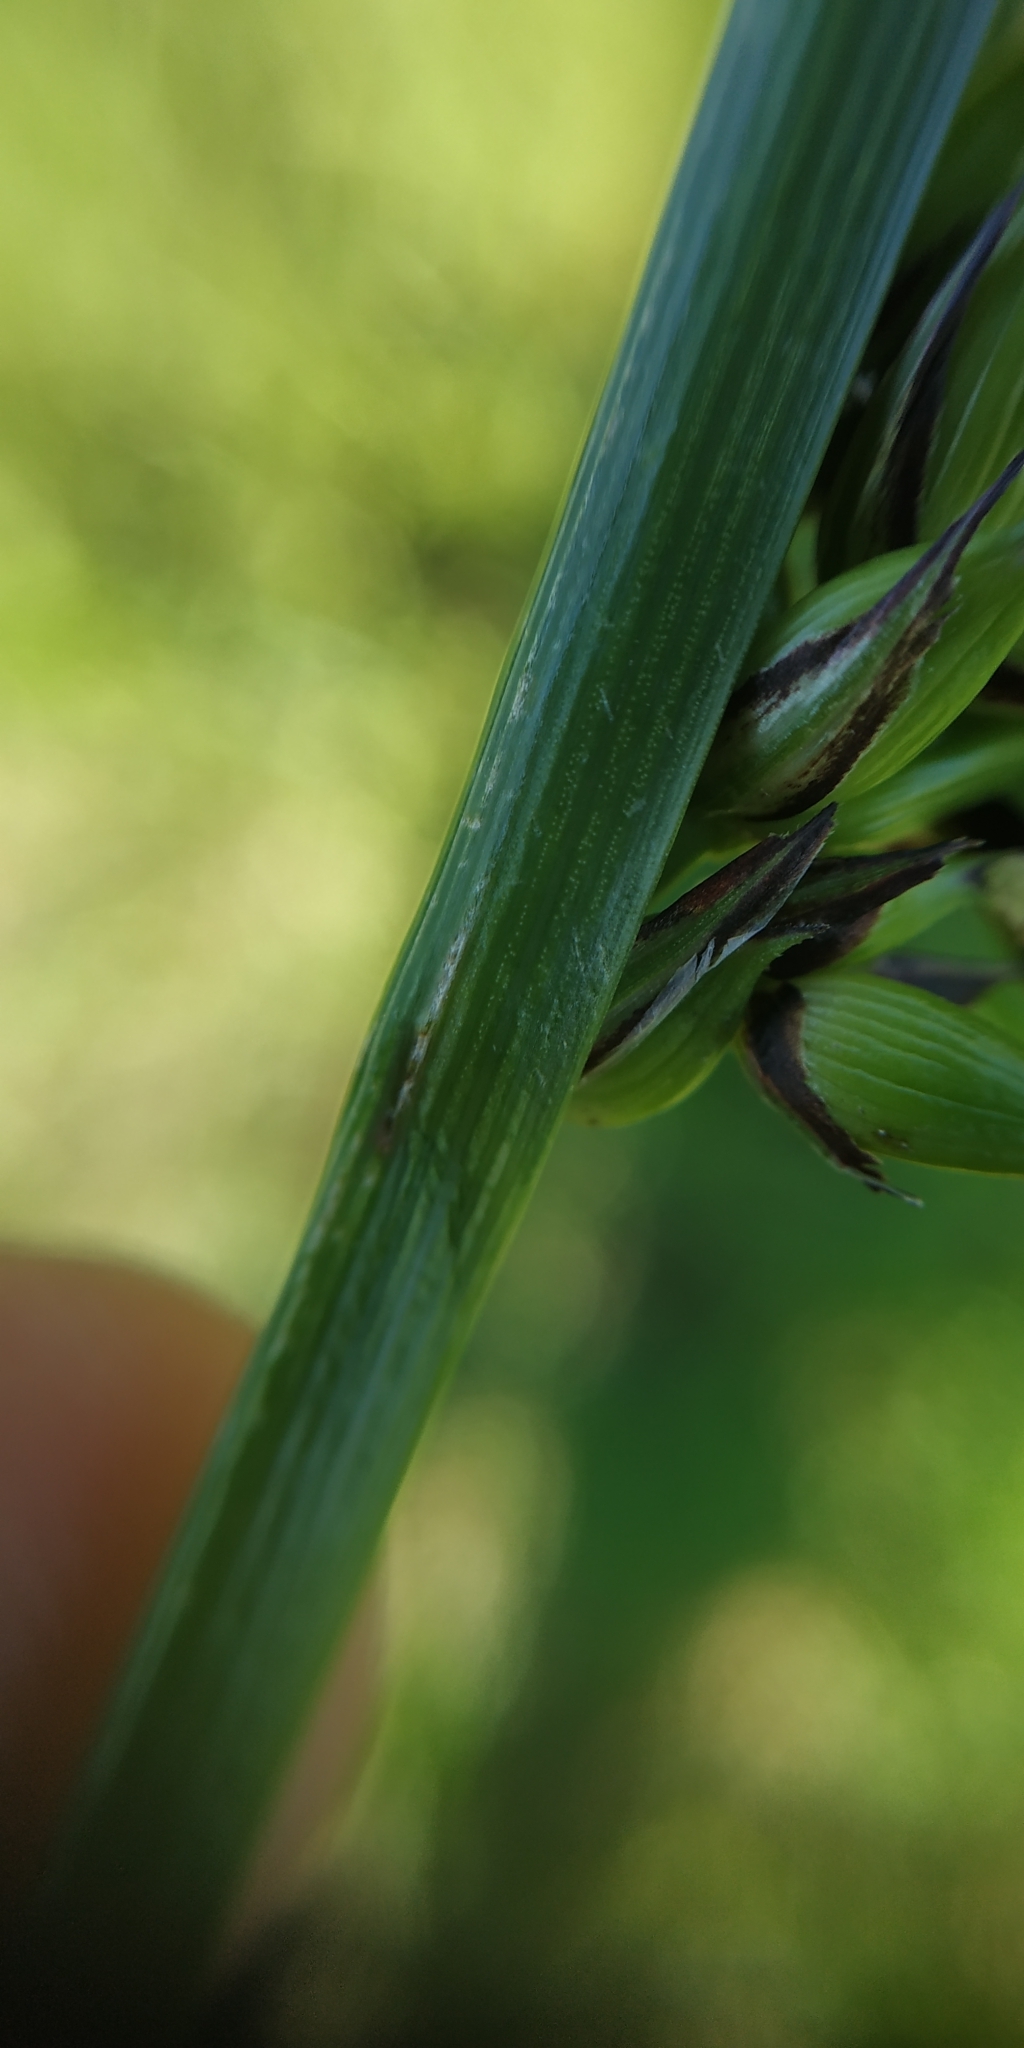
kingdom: Plantae
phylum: Tracheophyta
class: Liliopsida
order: Poales
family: Cyperaceae
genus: Carex
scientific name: Carex atherodes
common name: Wheat sedge
